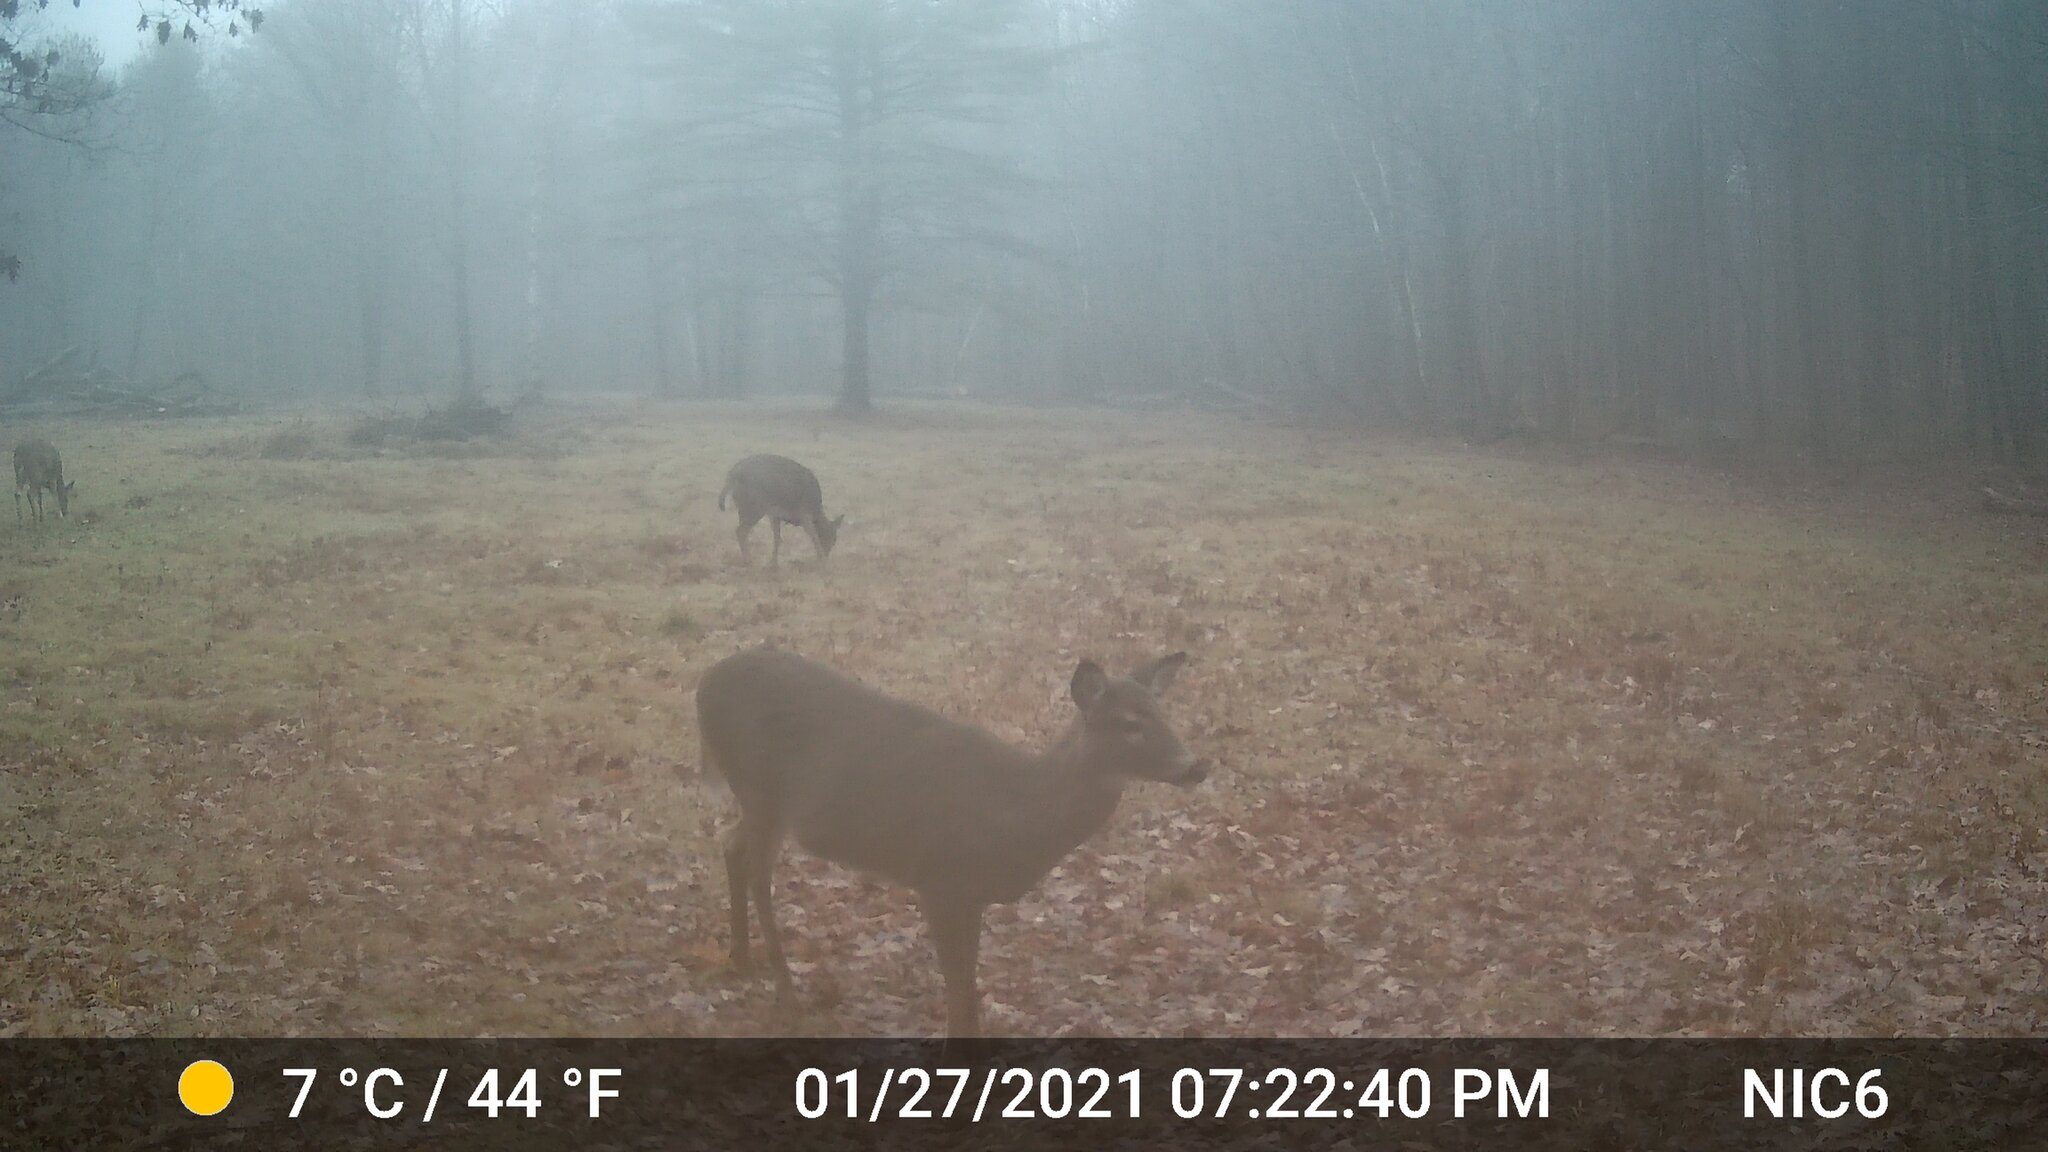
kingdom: Animalia
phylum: Chordata
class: Mammalia
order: Artiodactyla
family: Cervidae
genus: Odocoileus
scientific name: Odocoileus virginianus
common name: White-tailed deer
